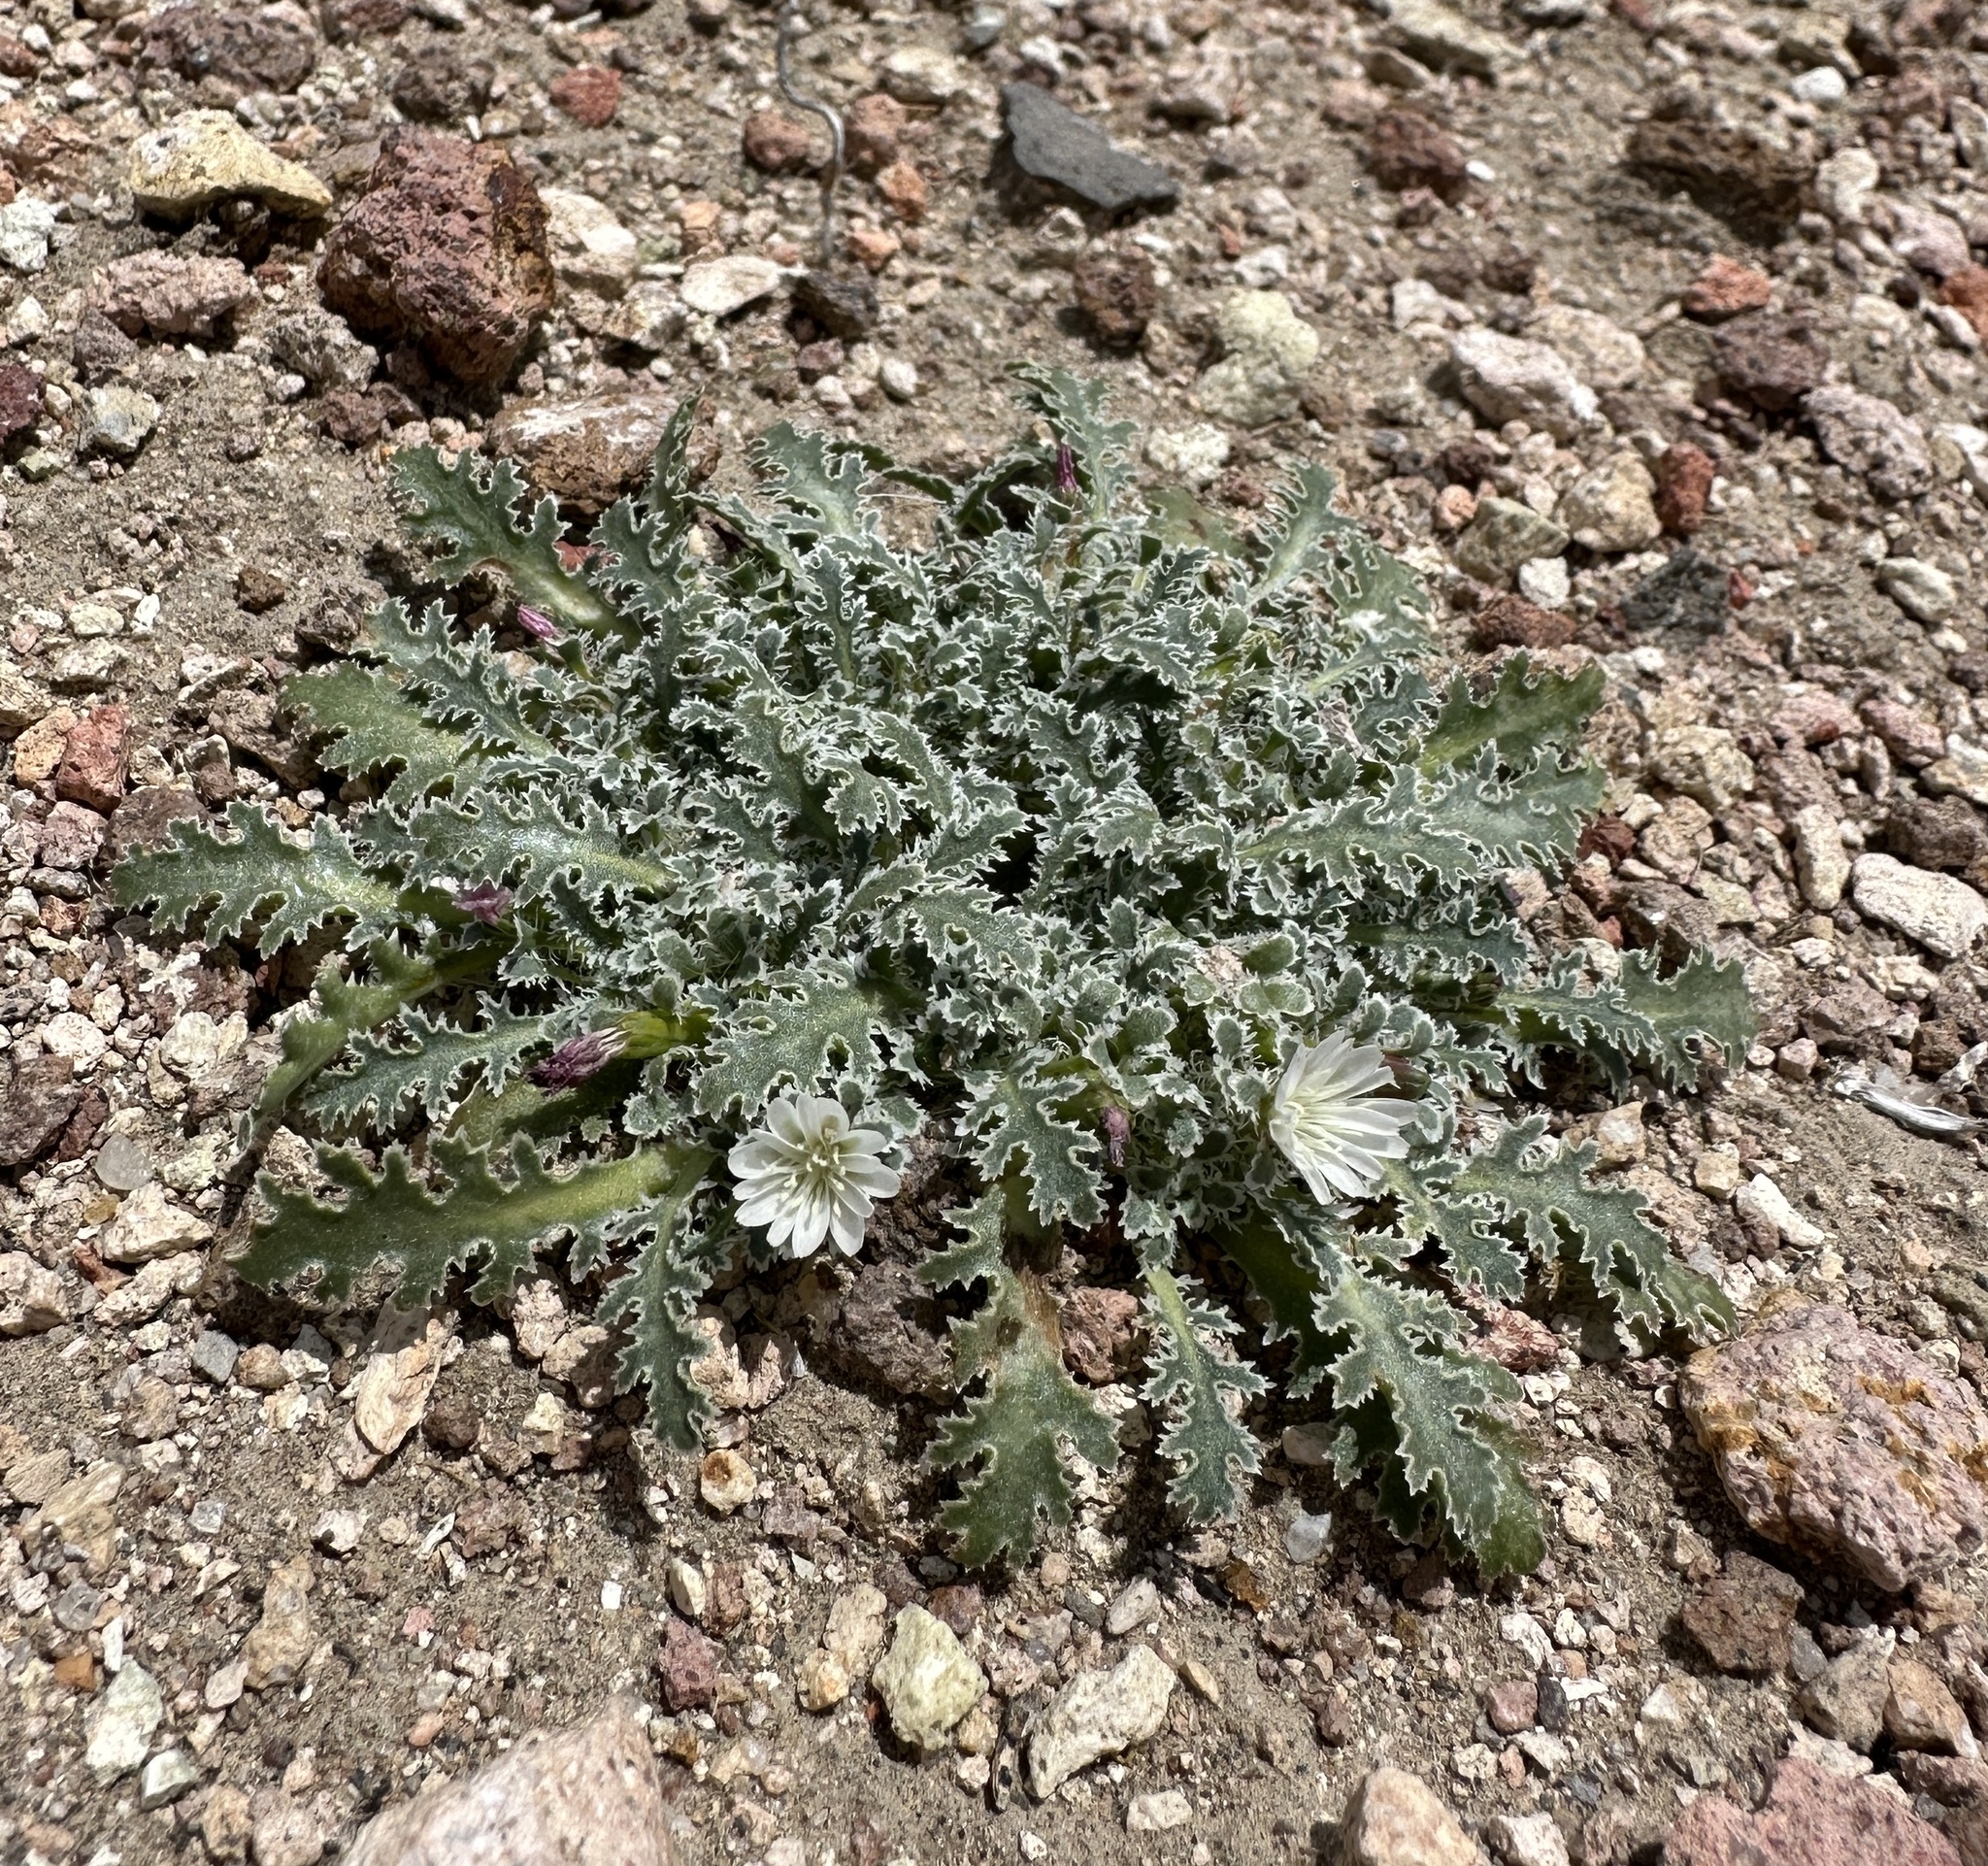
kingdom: Plantae
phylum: Tracheophyta
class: Magnoliopsida
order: Asterales
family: Asteraceae
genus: Glyptopleura
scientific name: Glyptopleura marginata
